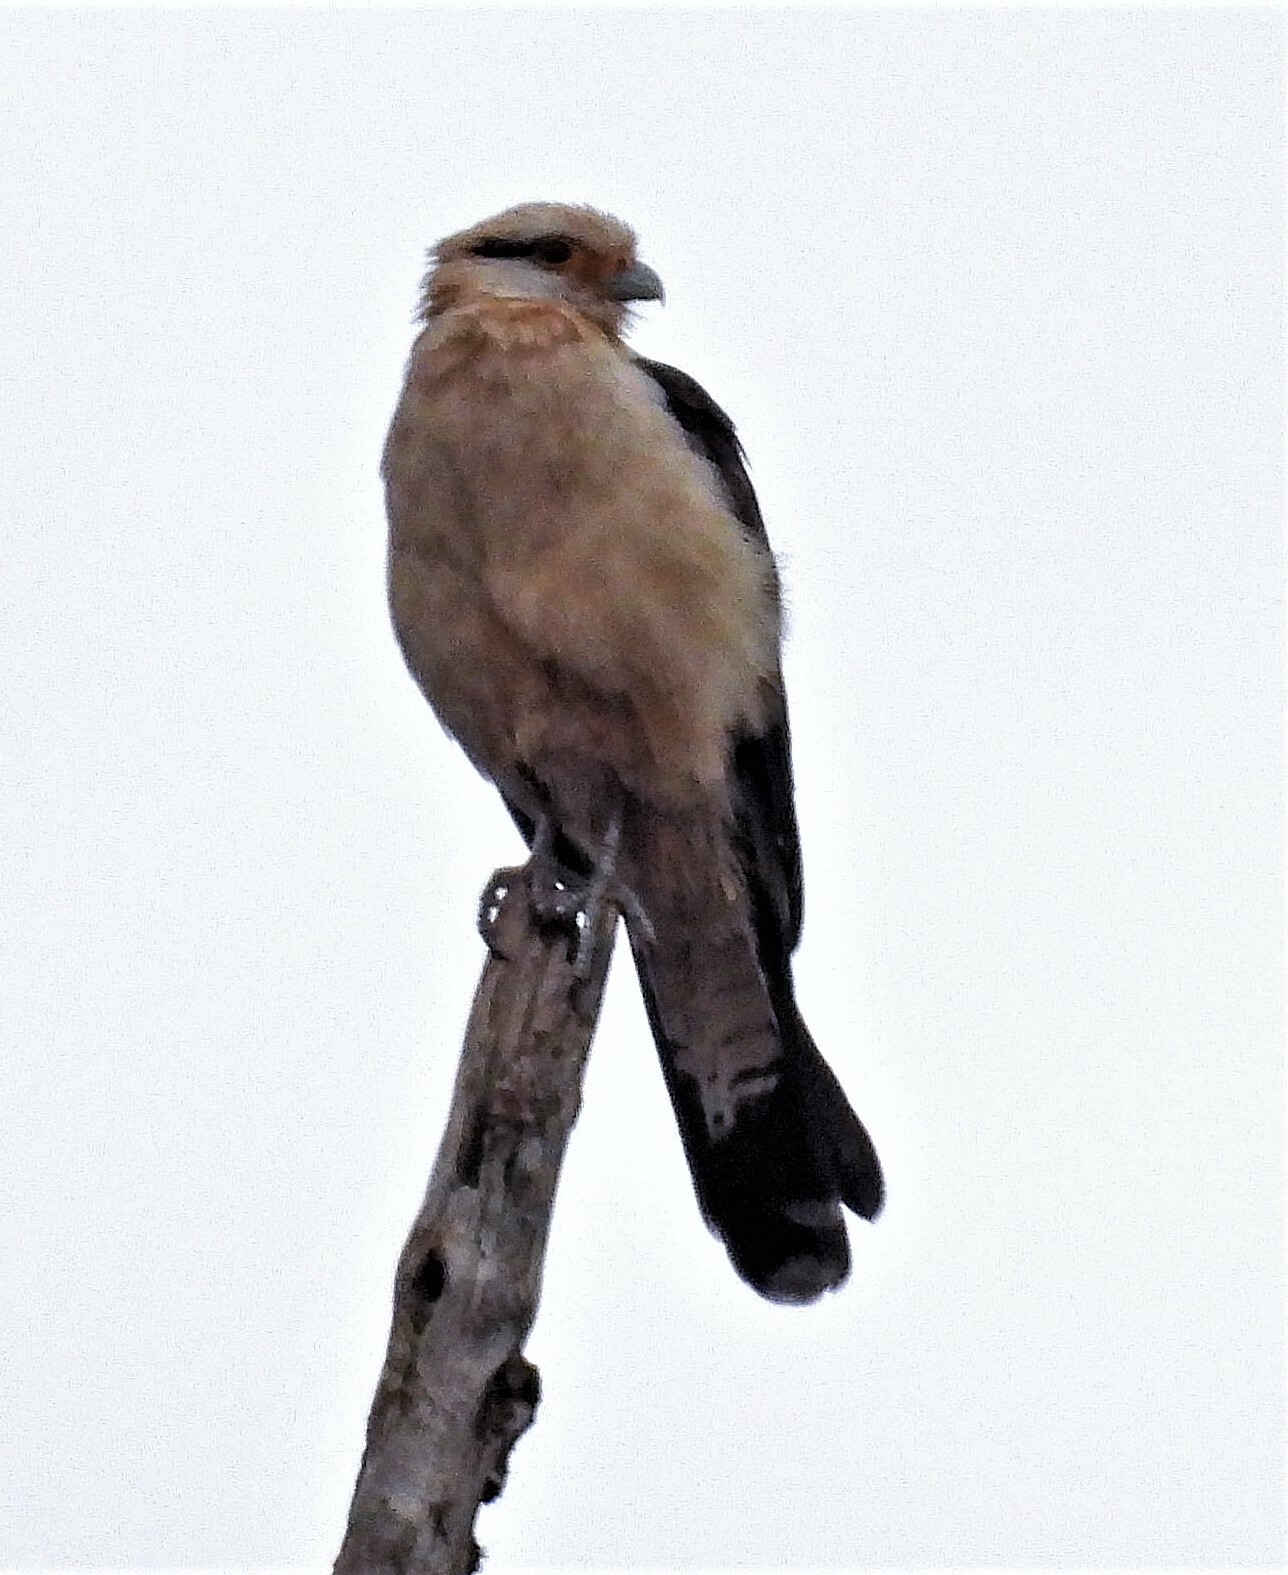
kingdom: Animalia
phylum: Chordata
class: Aves
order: Falconiformes
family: Falconidae
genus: Daptrius
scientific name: Daptrius
